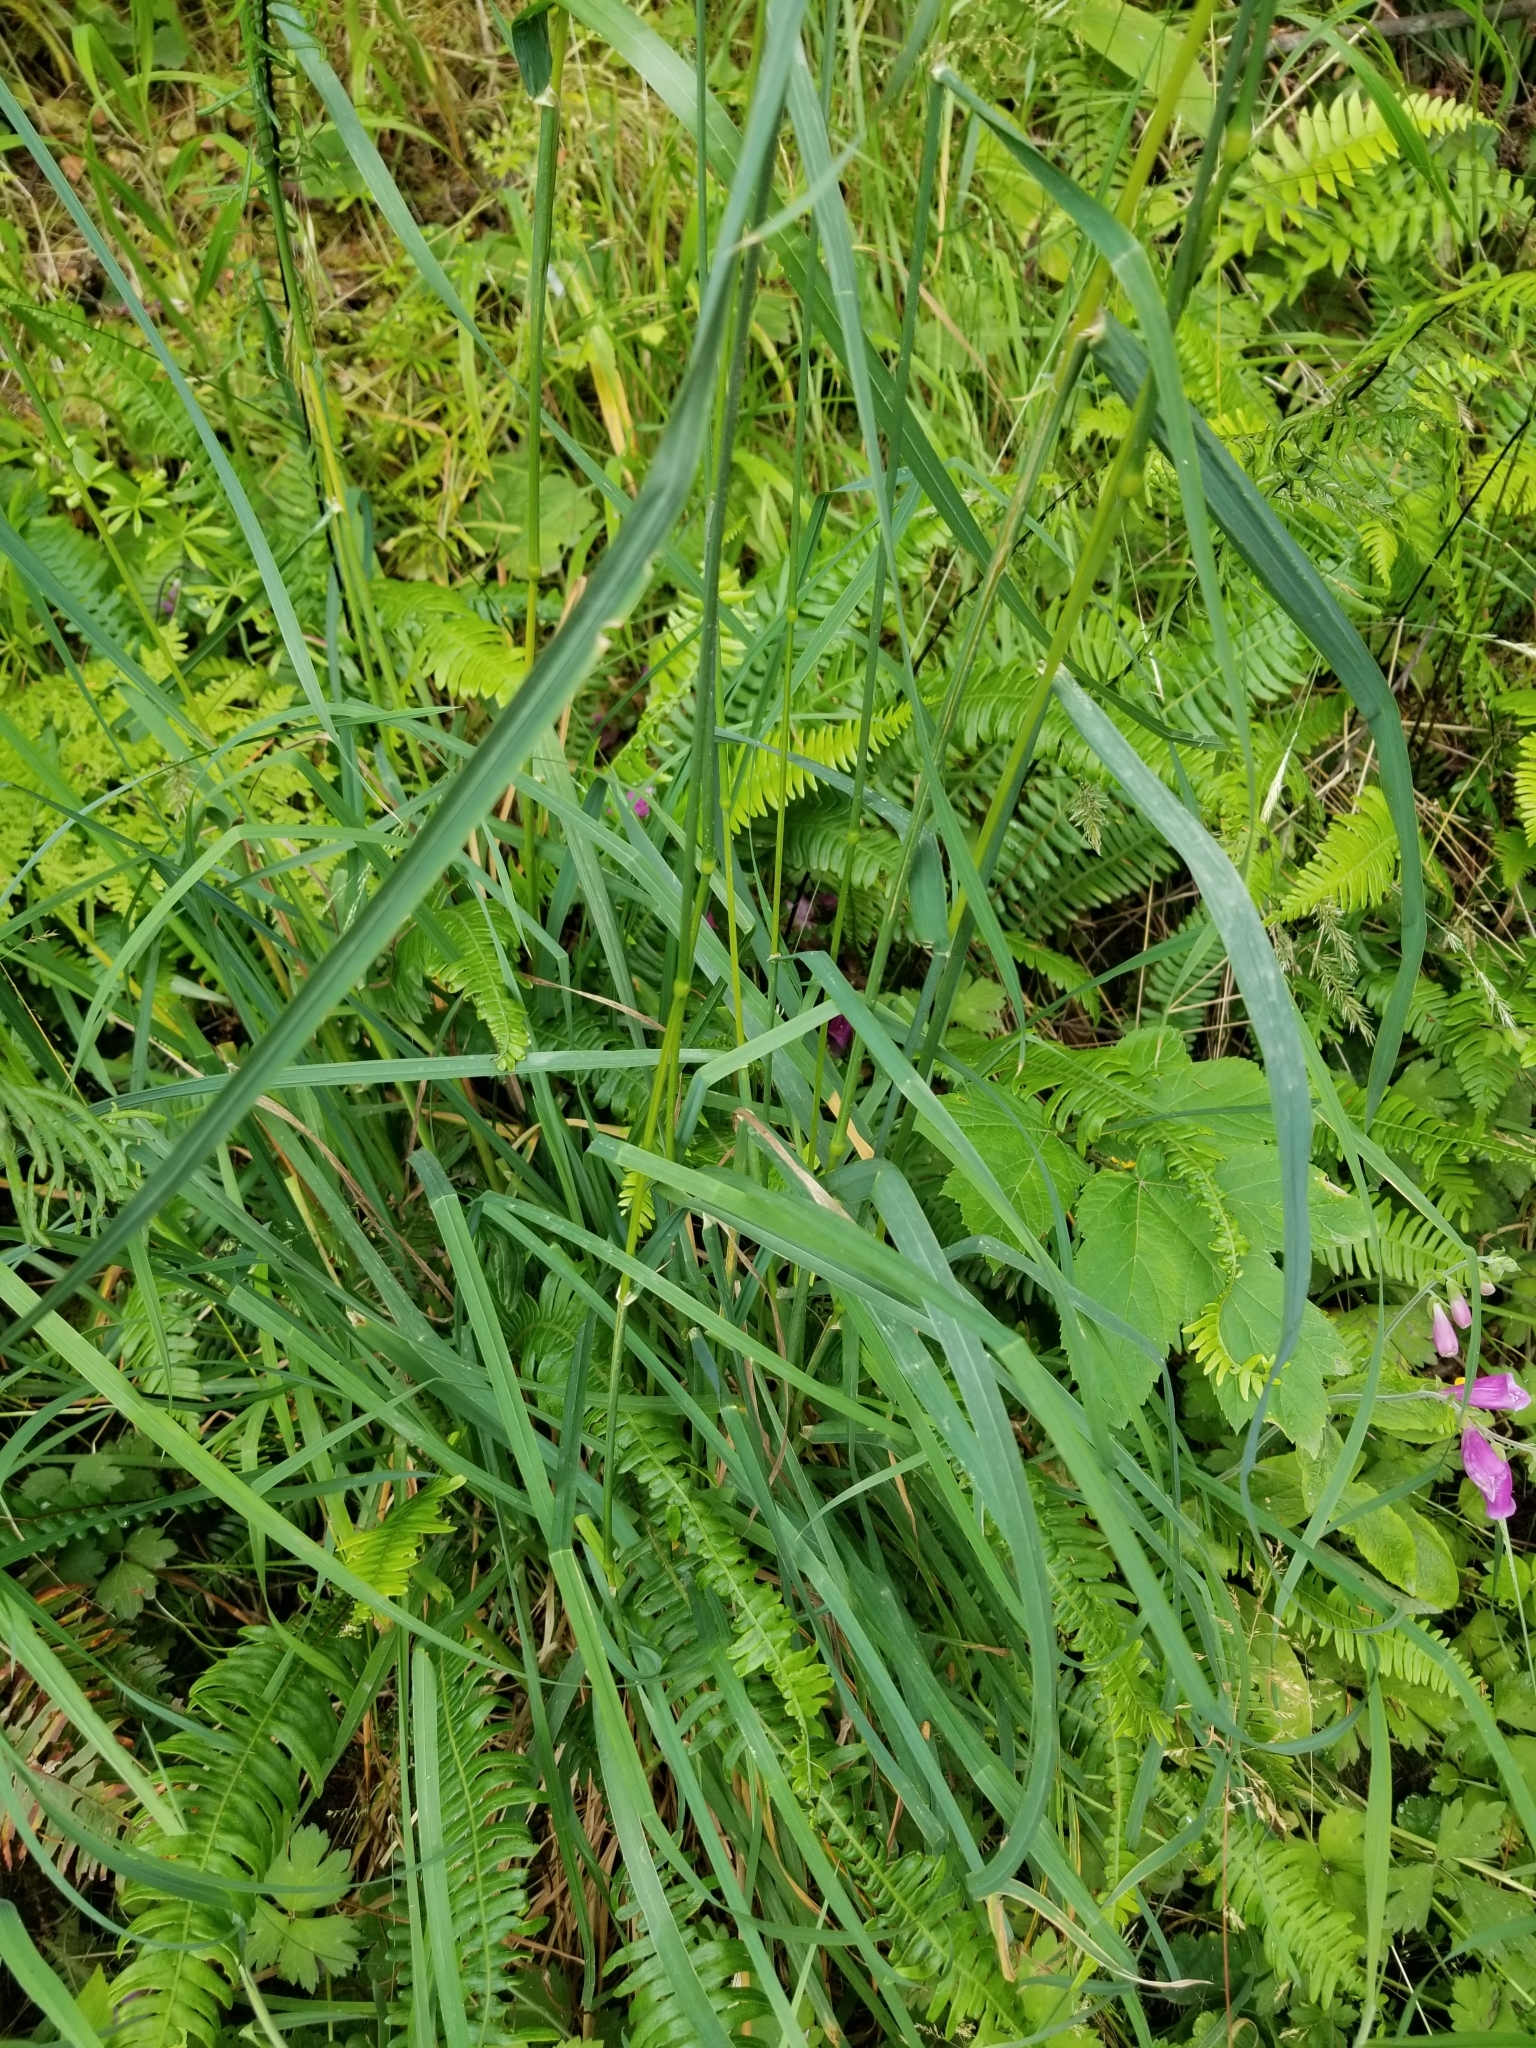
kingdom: Plantae
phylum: Tracheophyta
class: Liliopsida
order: Poales
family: Poaceae
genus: Dactylis
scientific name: Dactylis glomerata
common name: Orchardgrass
